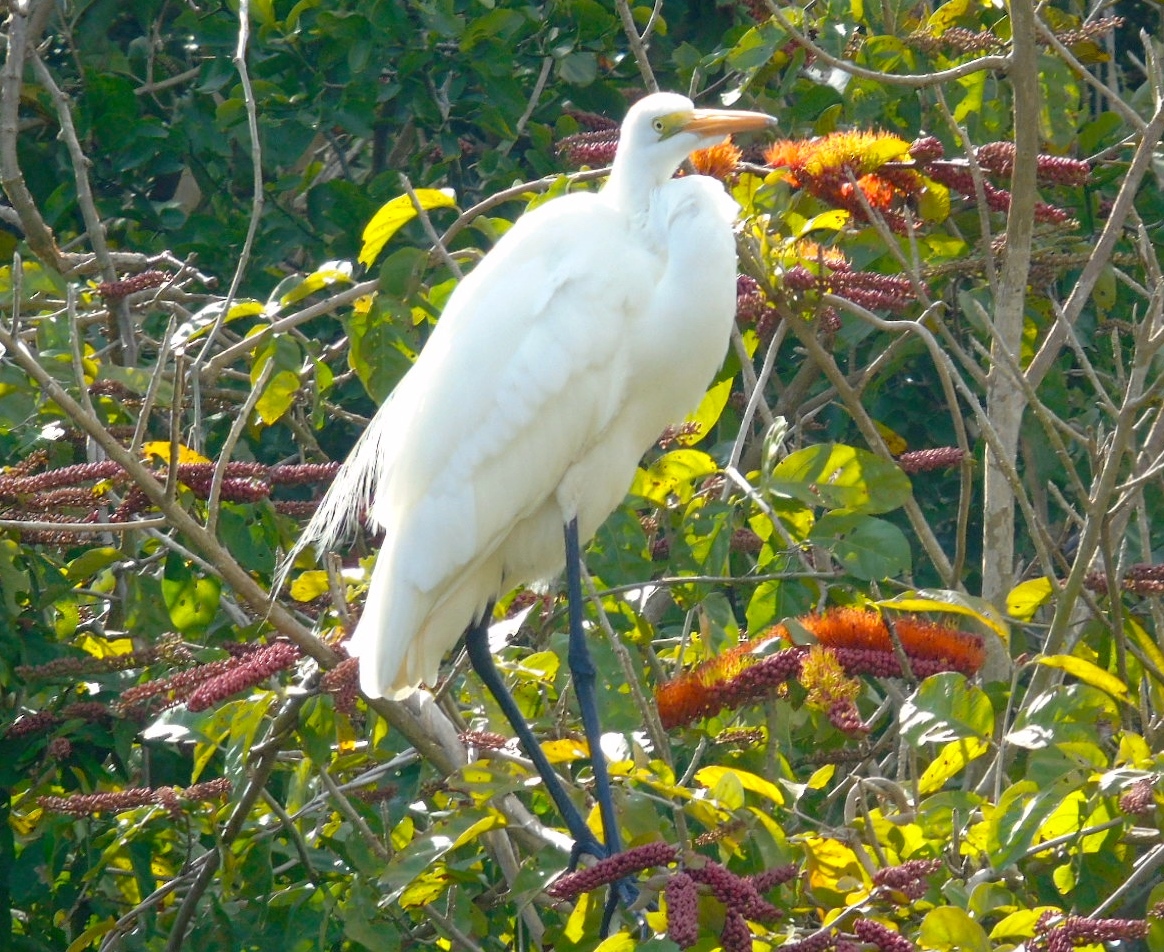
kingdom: Animalia
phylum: Chordata
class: Aves
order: Pelecaniformes
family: Ardeidae
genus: Ardea
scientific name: Ardea alba
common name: Great egret
